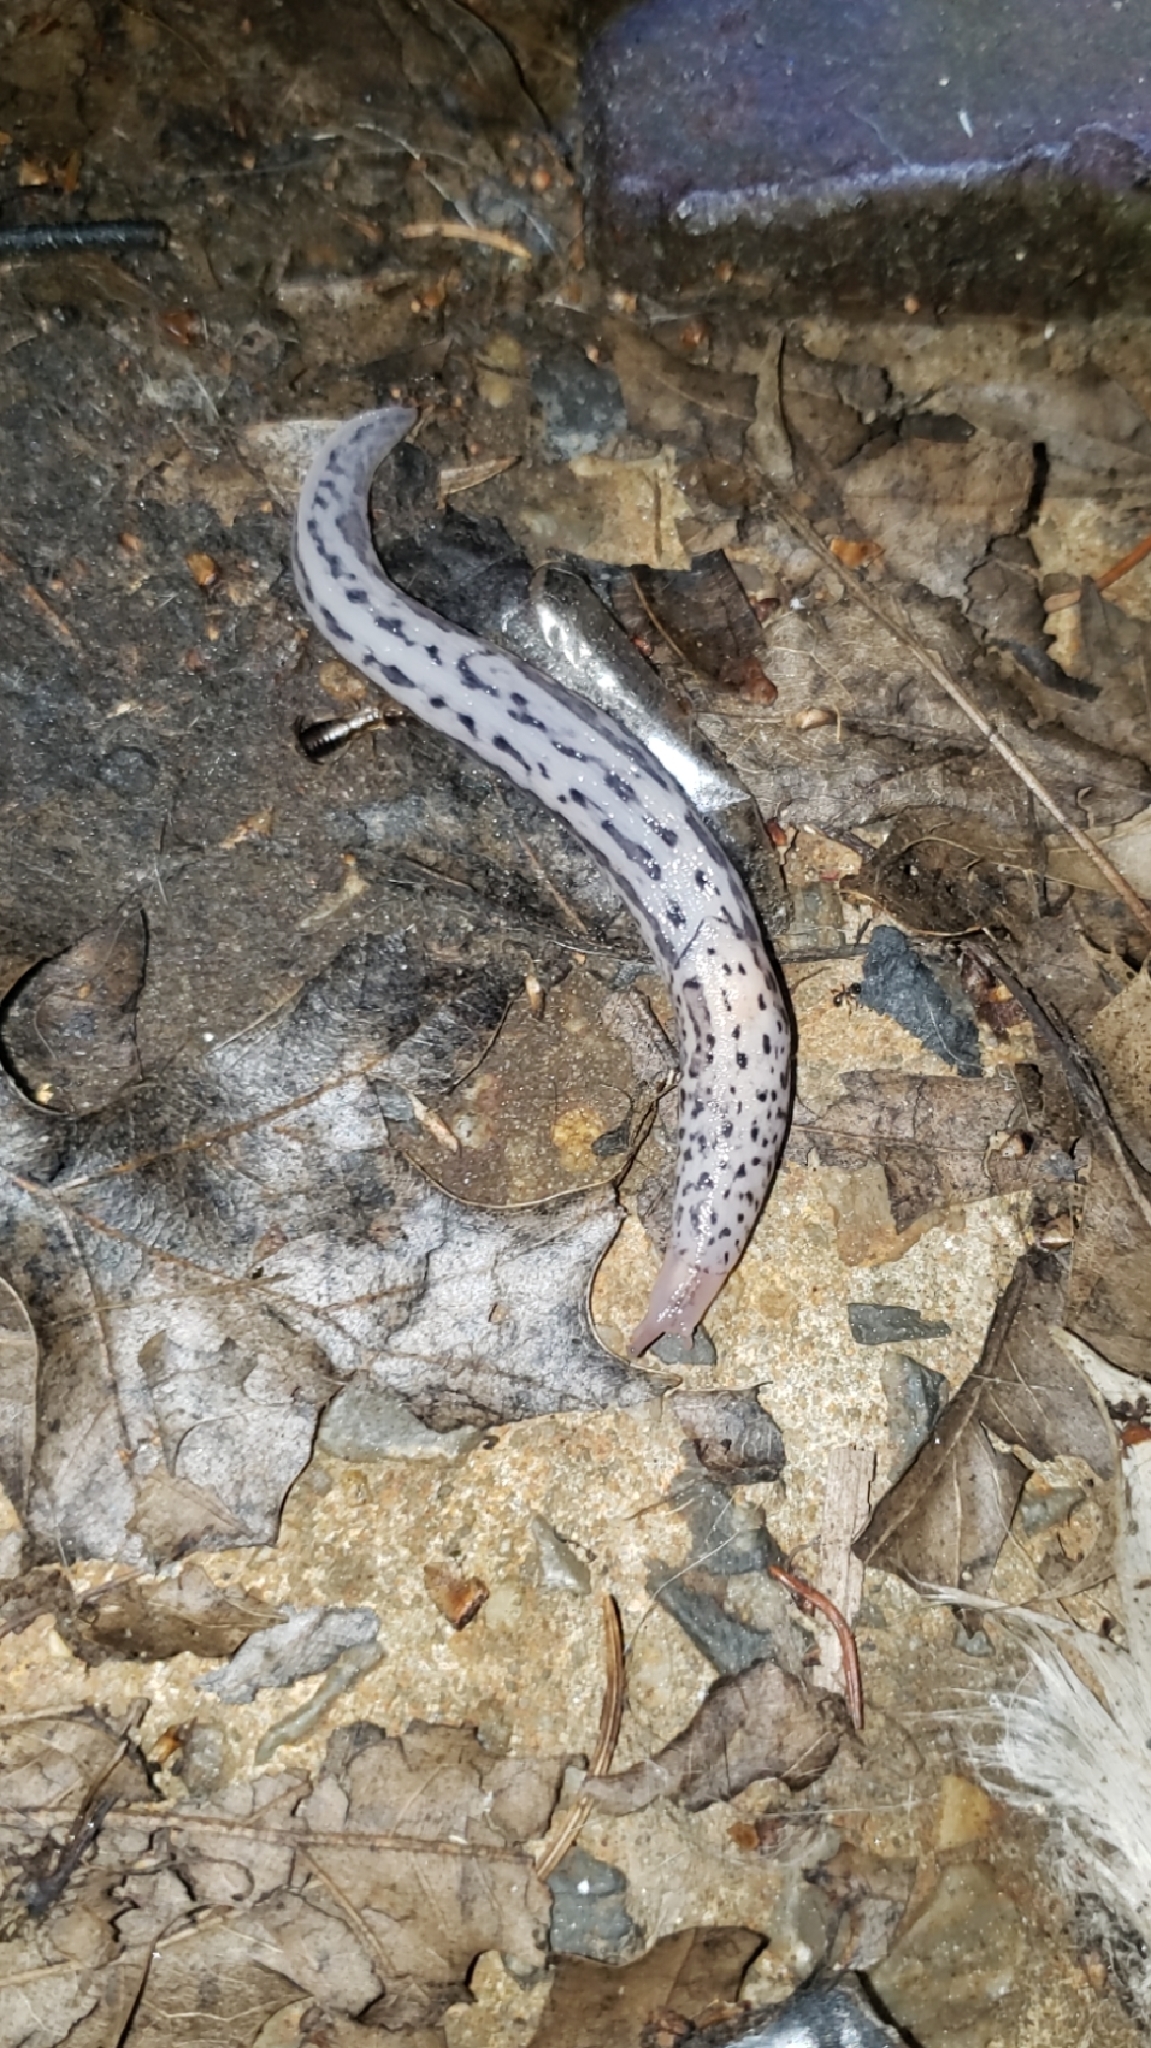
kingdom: Animalia
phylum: Mollusca
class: Gastropoda
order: Stylommatophora
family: Limacidae
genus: Limax
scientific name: Limax maximus
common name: Great grey slug
